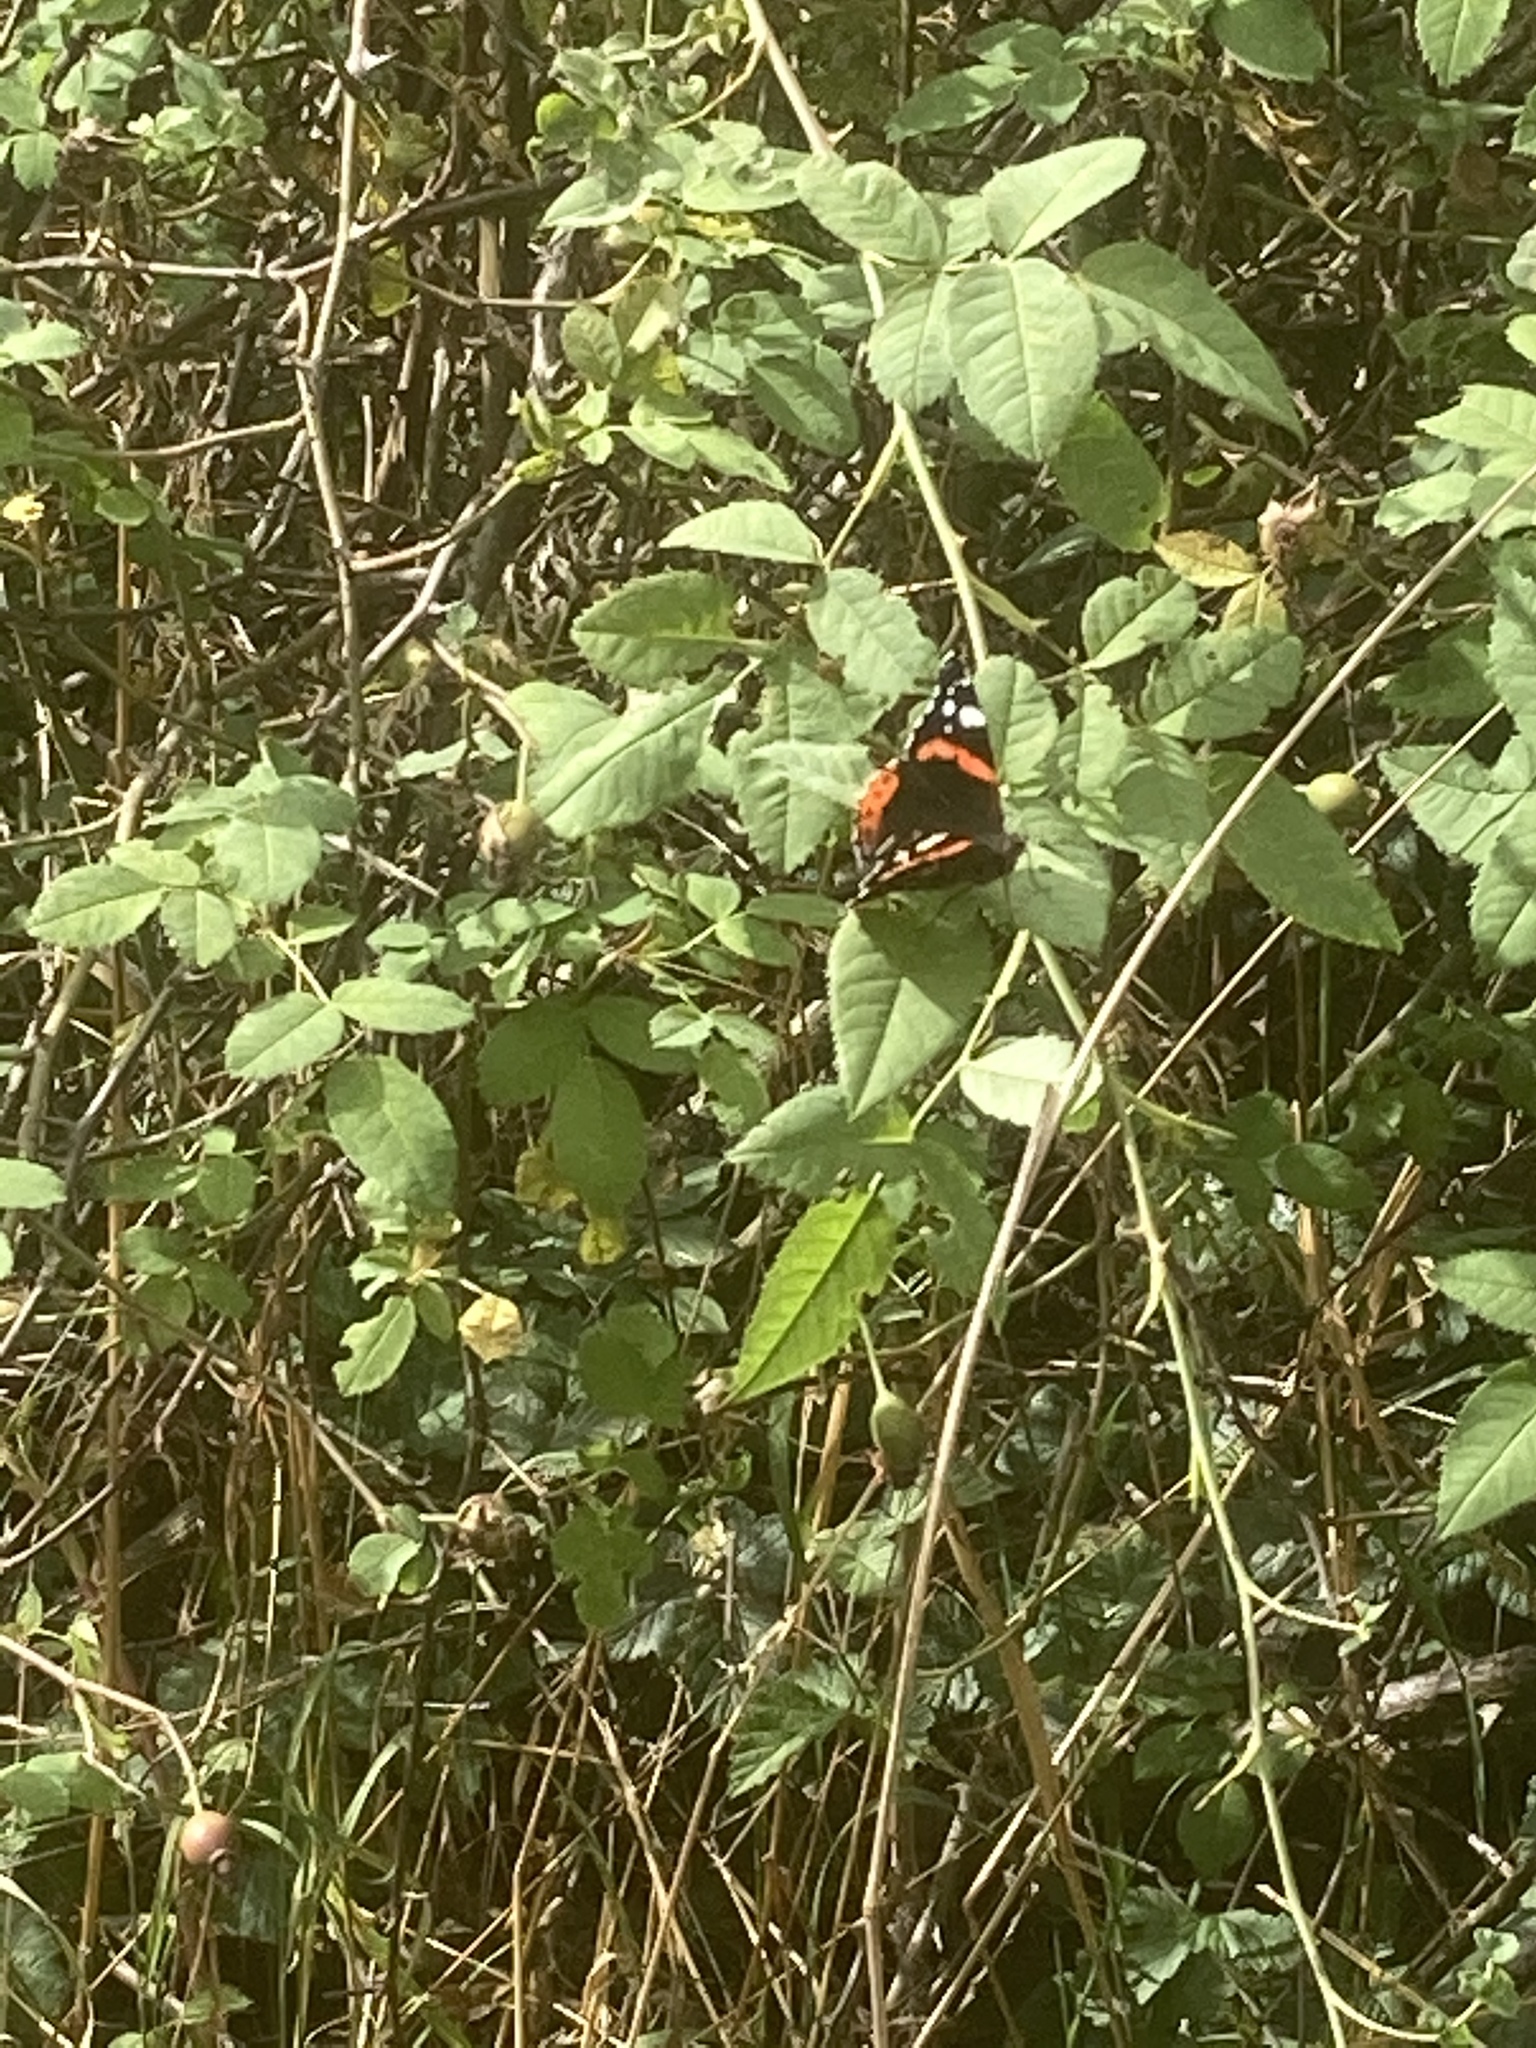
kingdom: Animalia
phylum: Arthropoda
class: Insecta
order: Lepidoptera
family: Nymphalidae
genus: Vanessa
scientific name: Vanessa atalanta
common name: Red admiral
